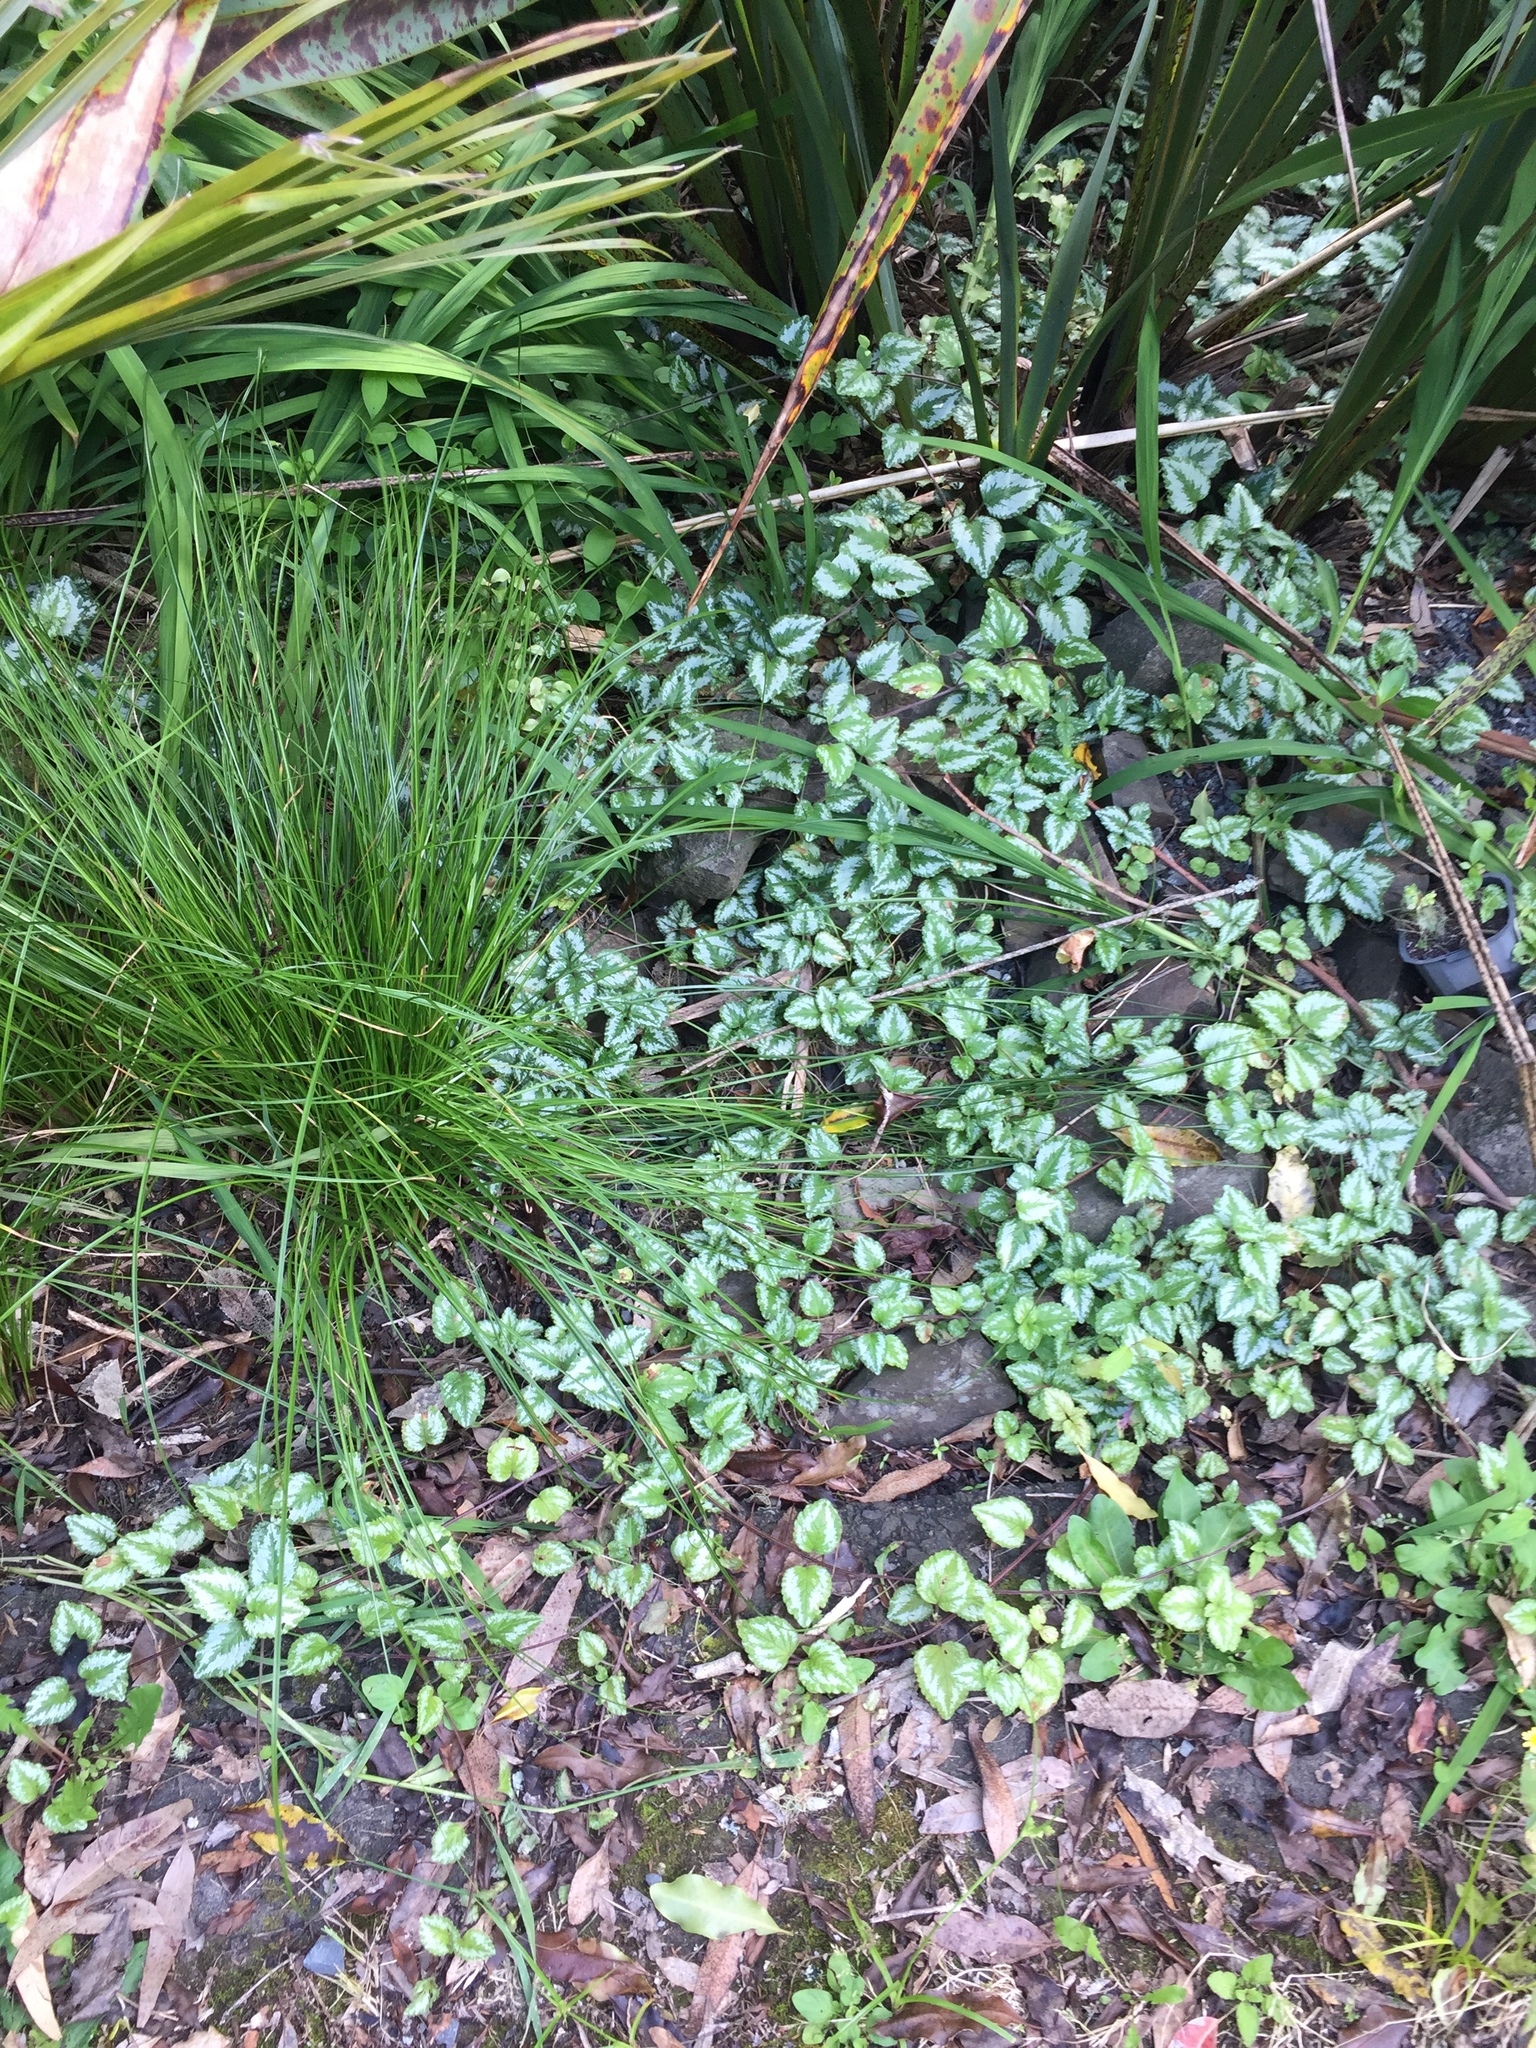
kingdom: Plantae
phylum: Tracheophyta
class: Magnoliopsida
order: Lamiales
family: Lamiaceae
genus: Lamium
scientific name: Lamium galeobdolon
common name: Yellow archangel
